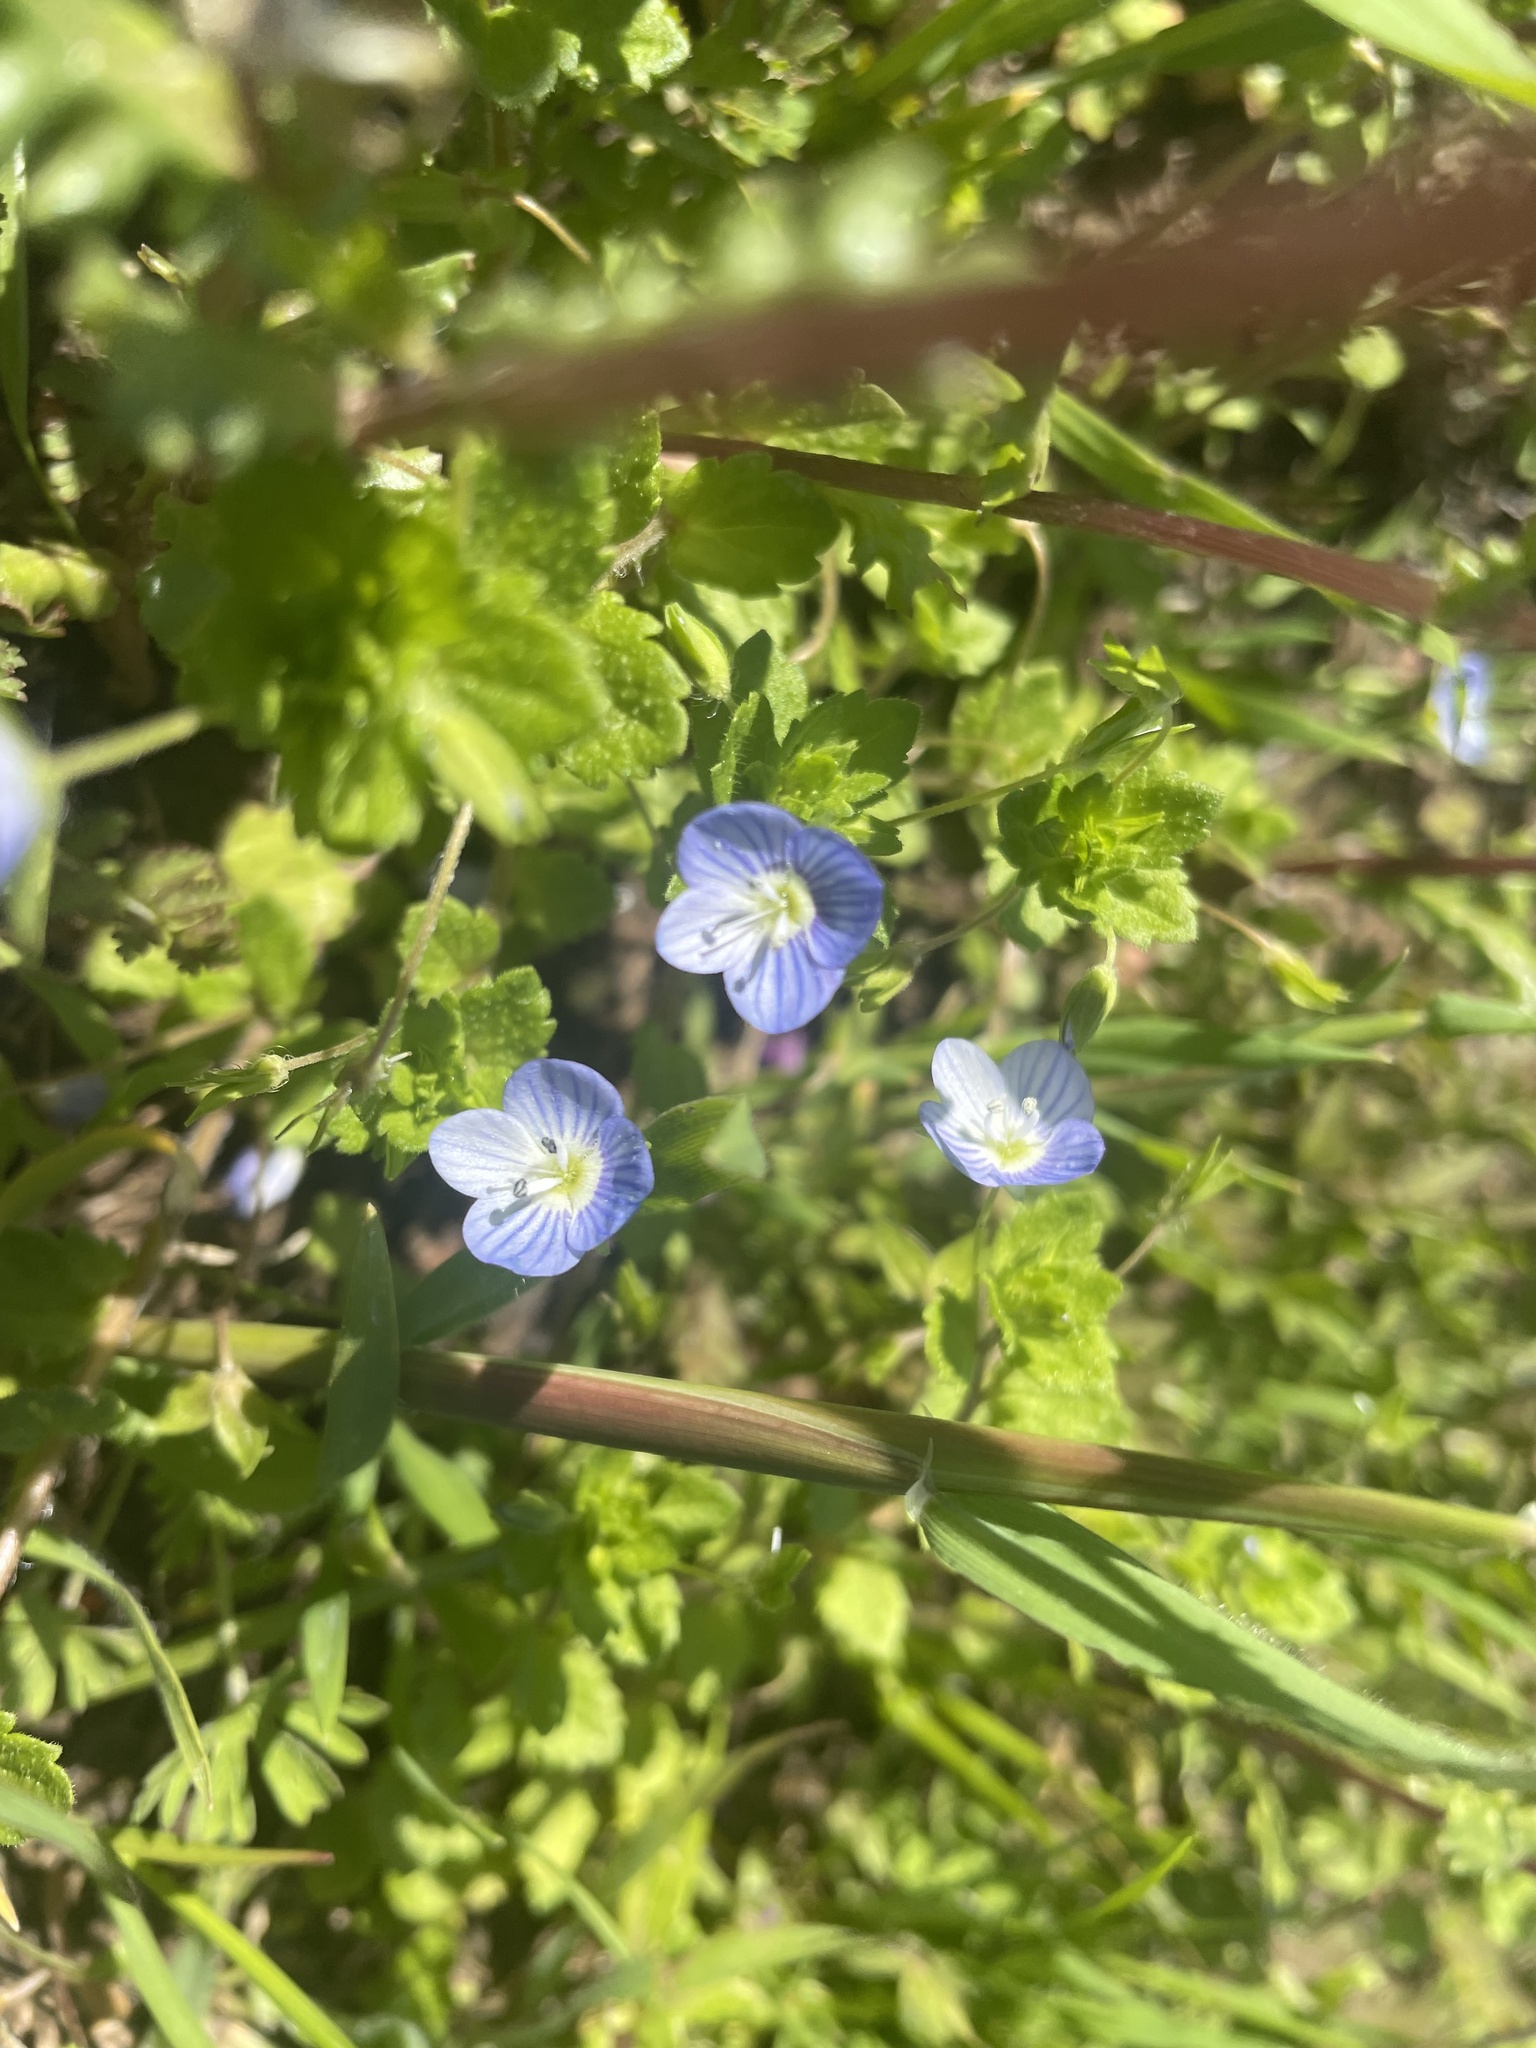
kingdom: Plantae
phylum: Tracheophyta
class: Magnoliopsida
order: Lamiales
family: Plantaginaceae
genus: Veronica
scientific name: Veronica persica
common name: Common field-speedwell
